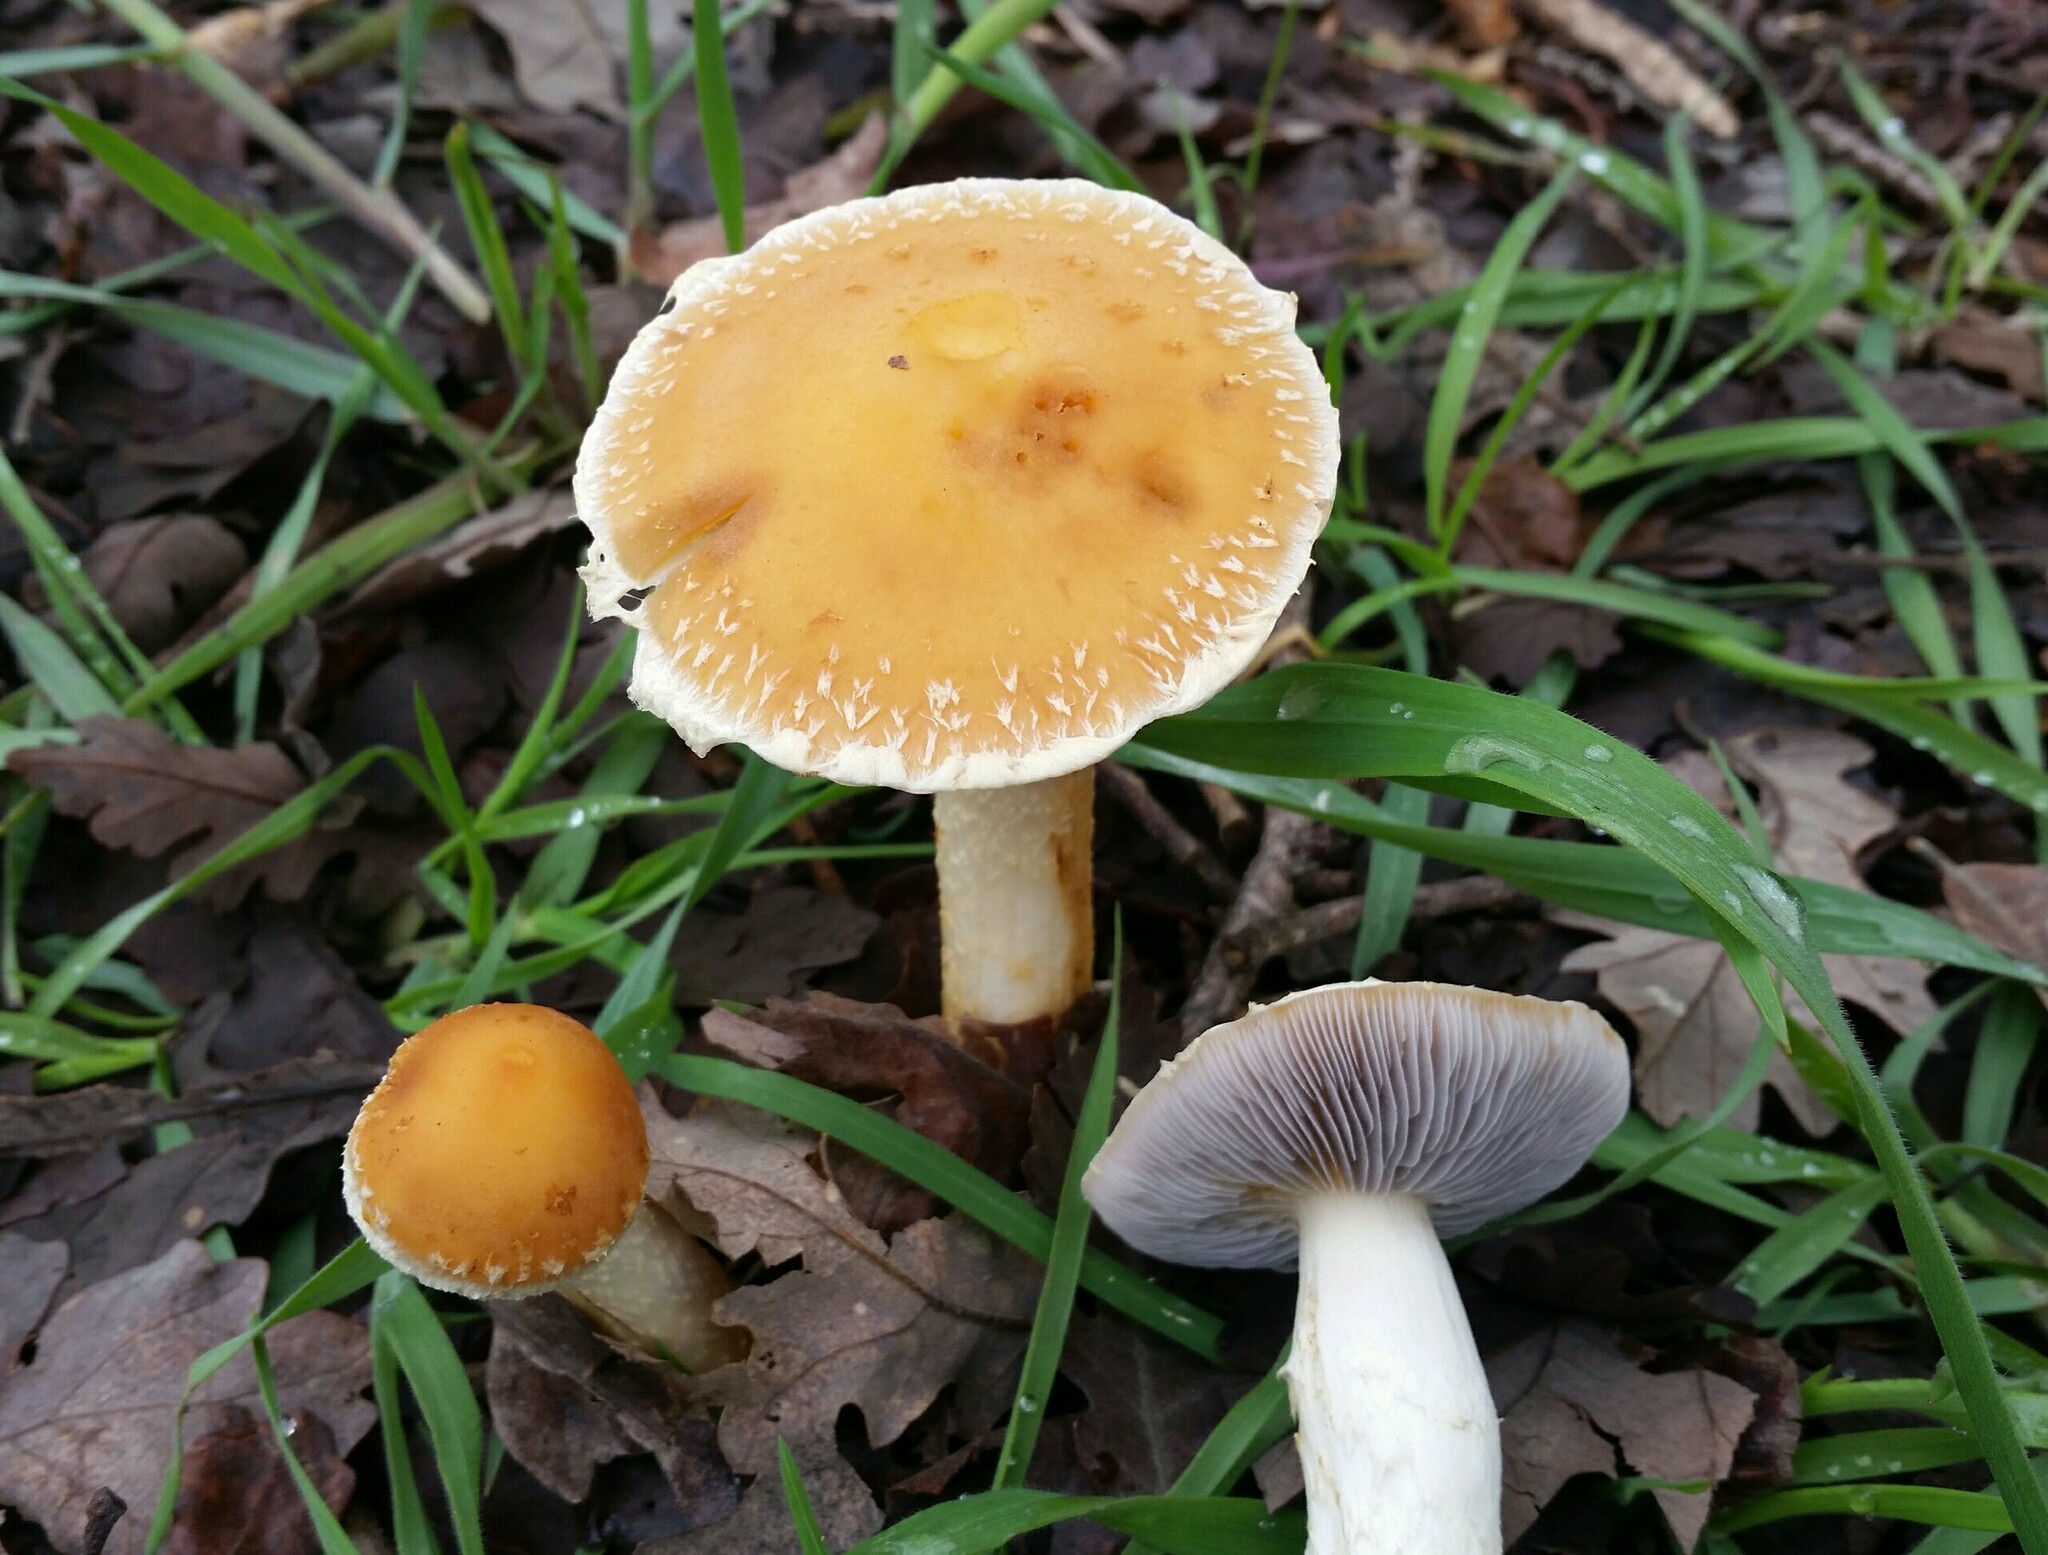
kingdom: Fungi
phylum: Basidiomycota
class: Agaricomycetes
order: Agaricales
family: Strophariaceae
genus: Leratiomyces
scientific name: Leratiomyces percevalii
